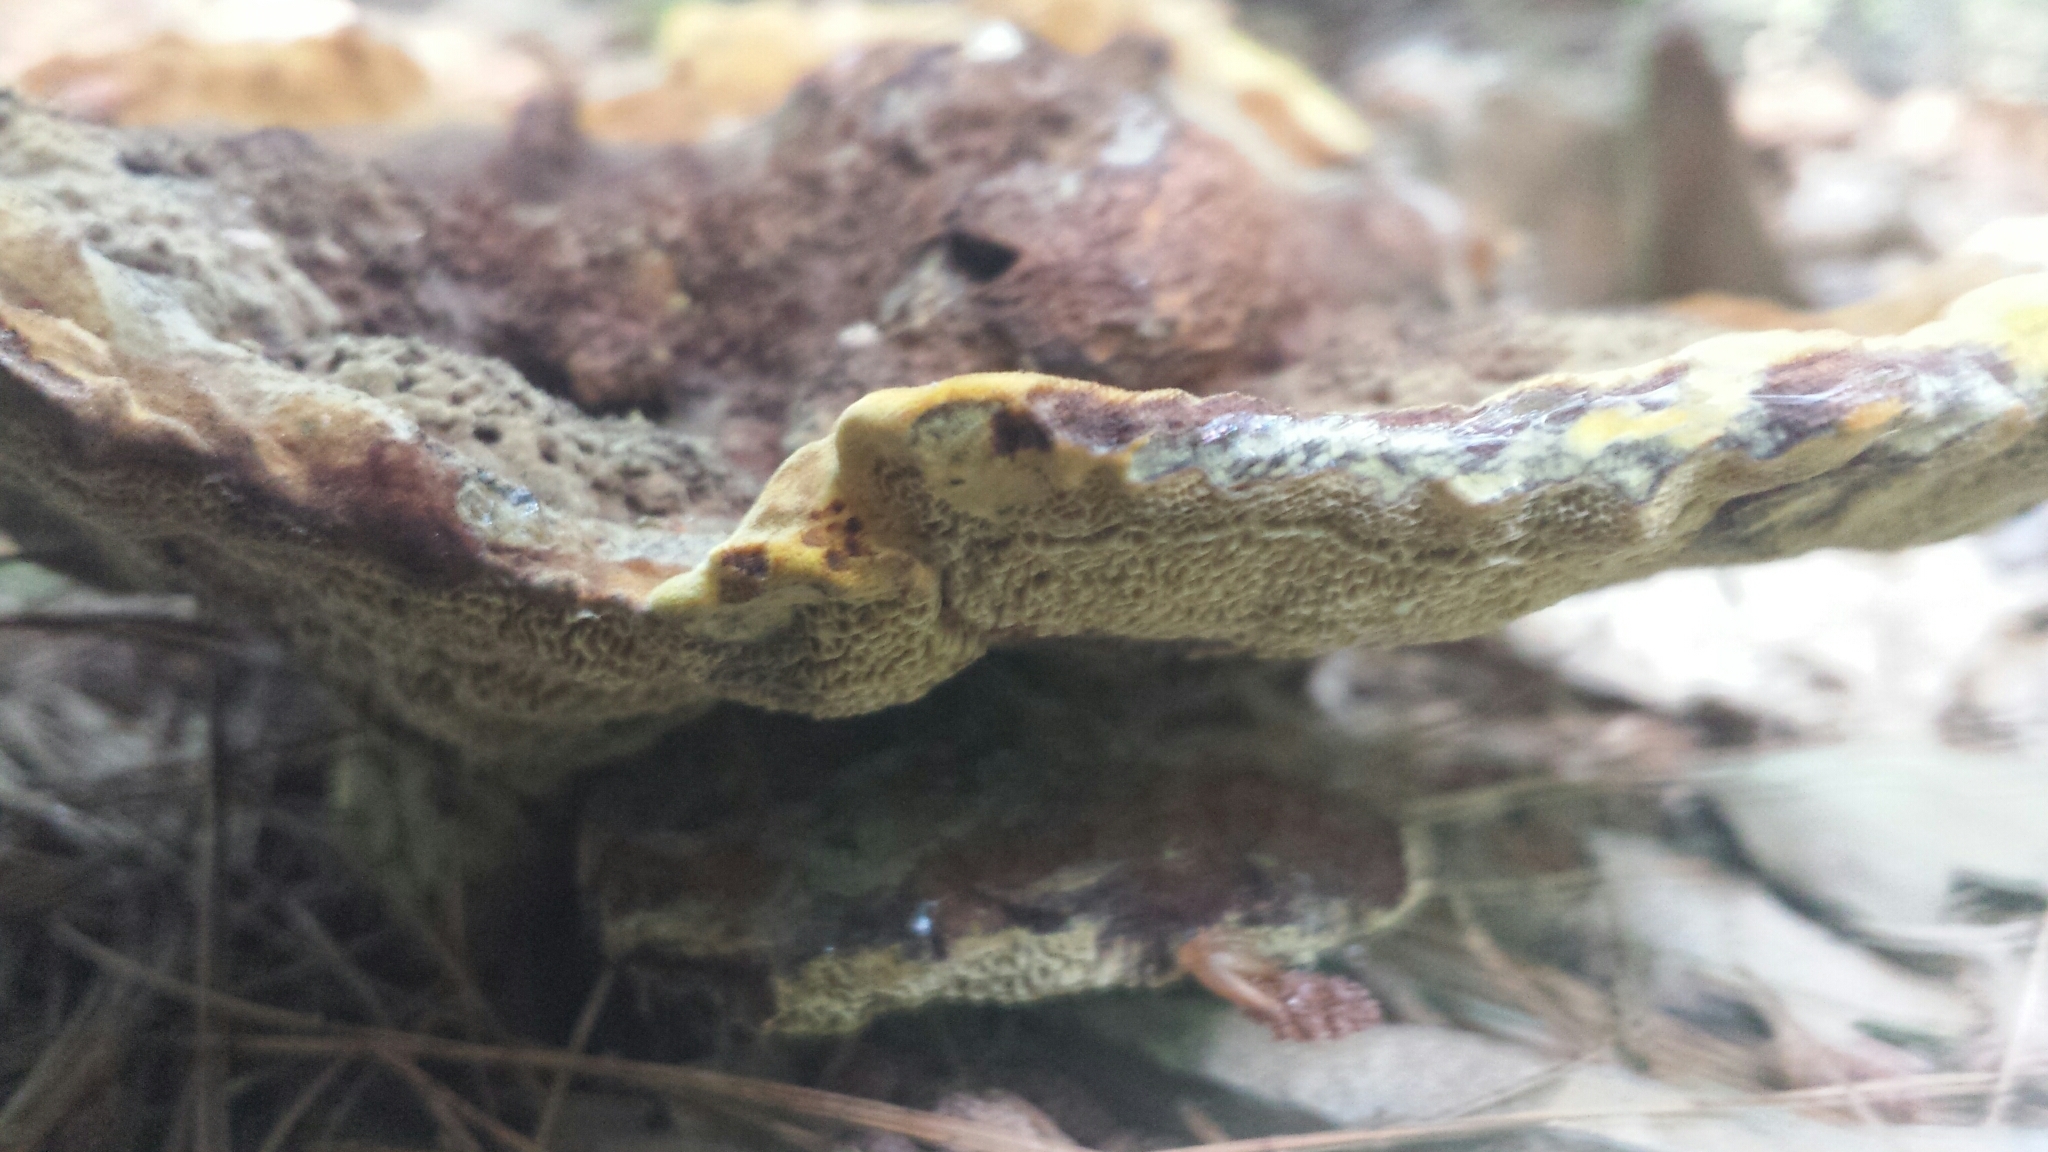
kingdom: Fungi
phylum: Basidiomycota
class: Agaricomycetes
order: Polyporales
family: Laetiporaceae
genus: Phaeolus
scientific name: Phaeolus schweinitzii
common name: Dyer's mazegill
